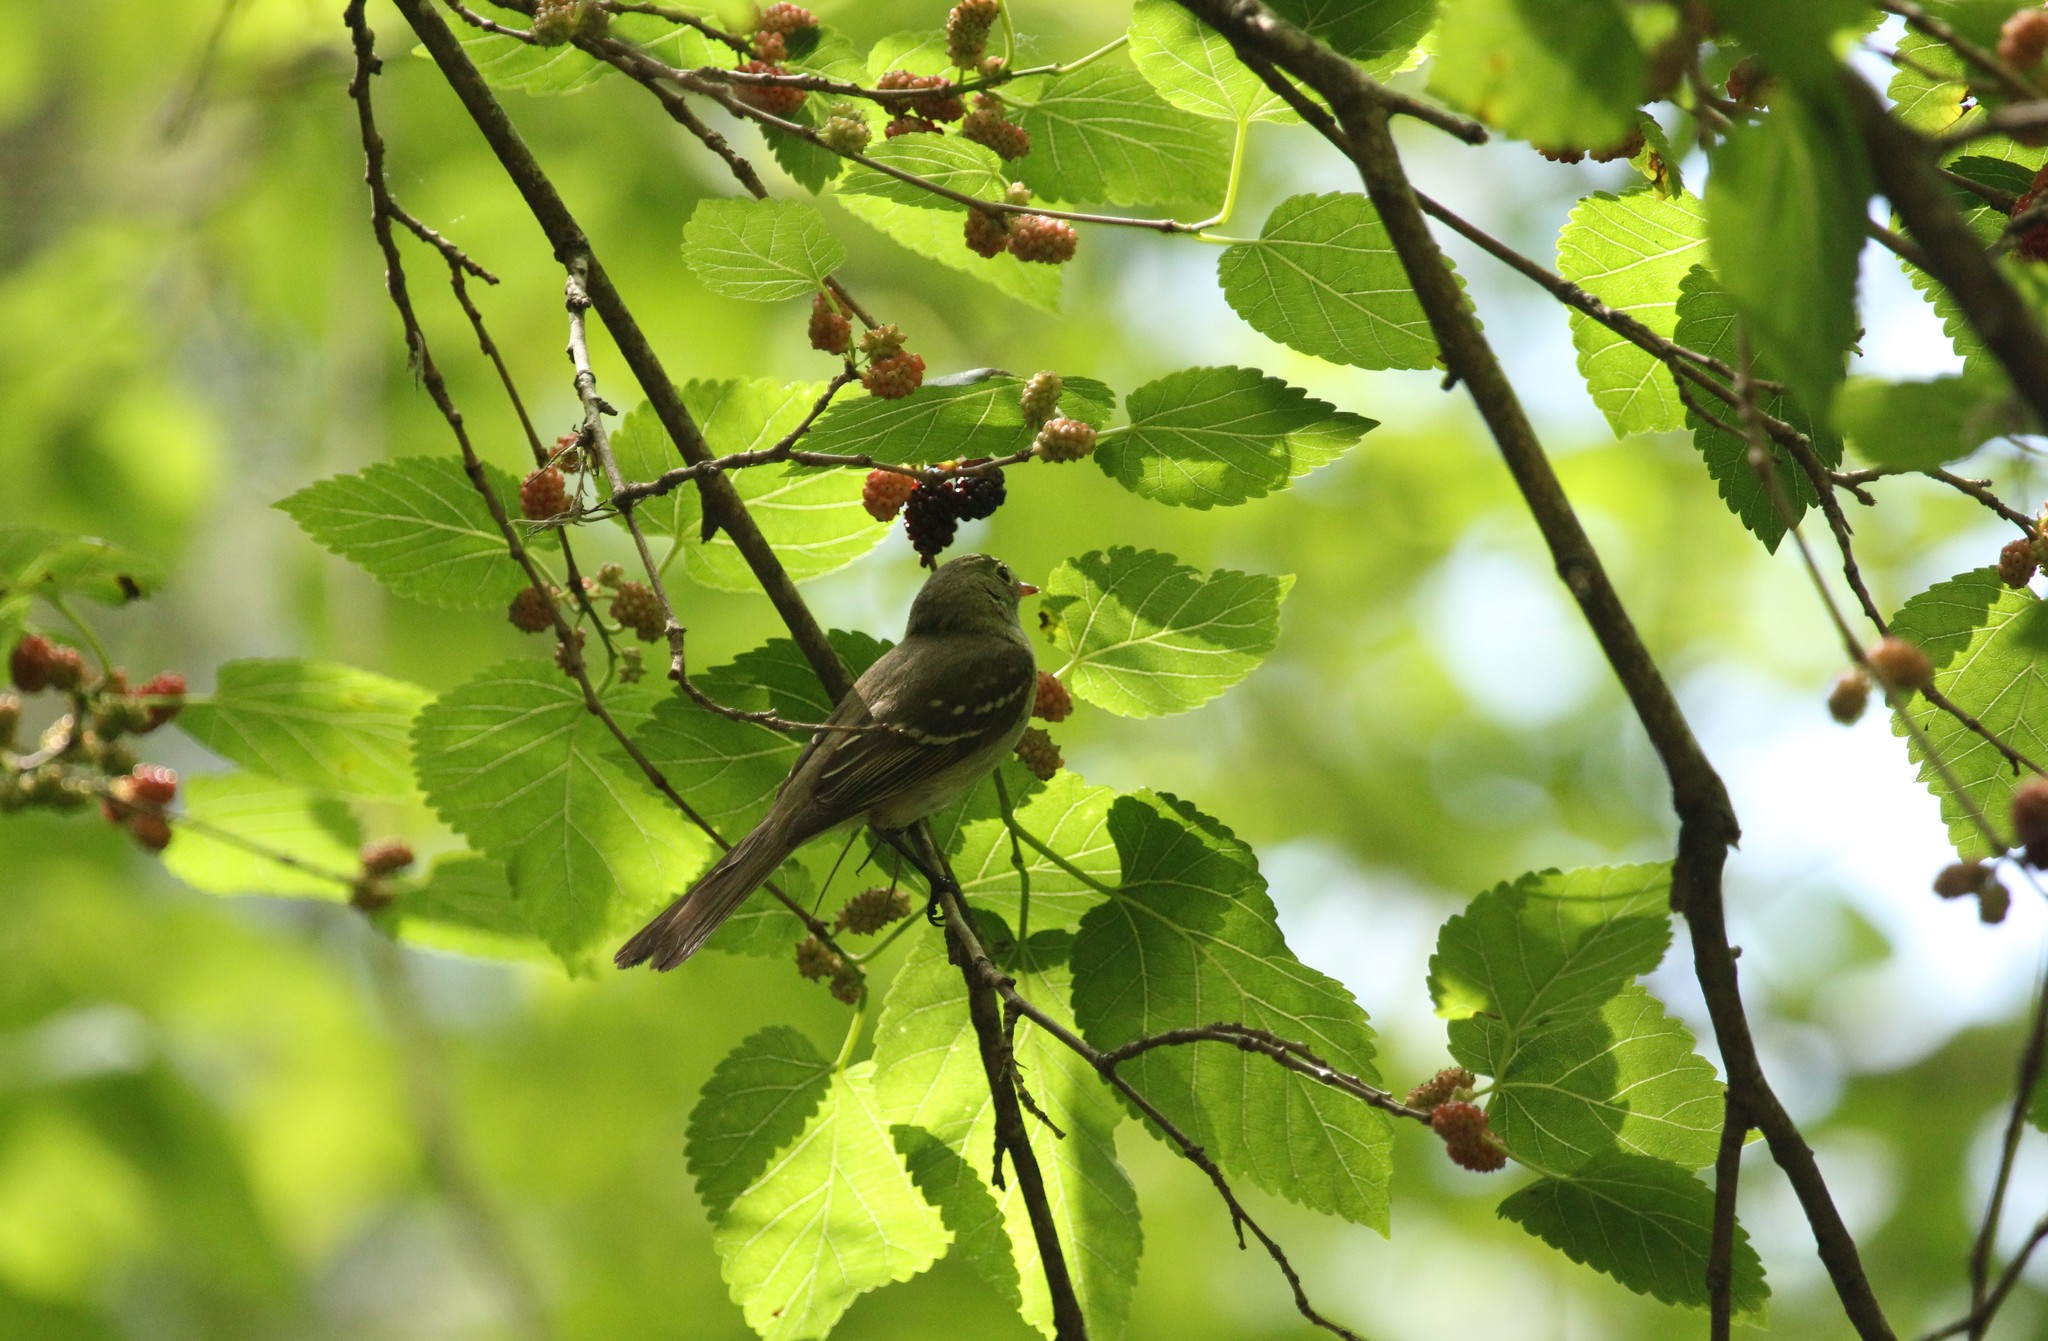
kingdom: Animalia
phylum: Chordata
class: Aves
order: Passeriformes
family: Tyrannidae
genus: Elaenia
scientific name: Elaenia parvirostris
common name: Small-billed elaenia
